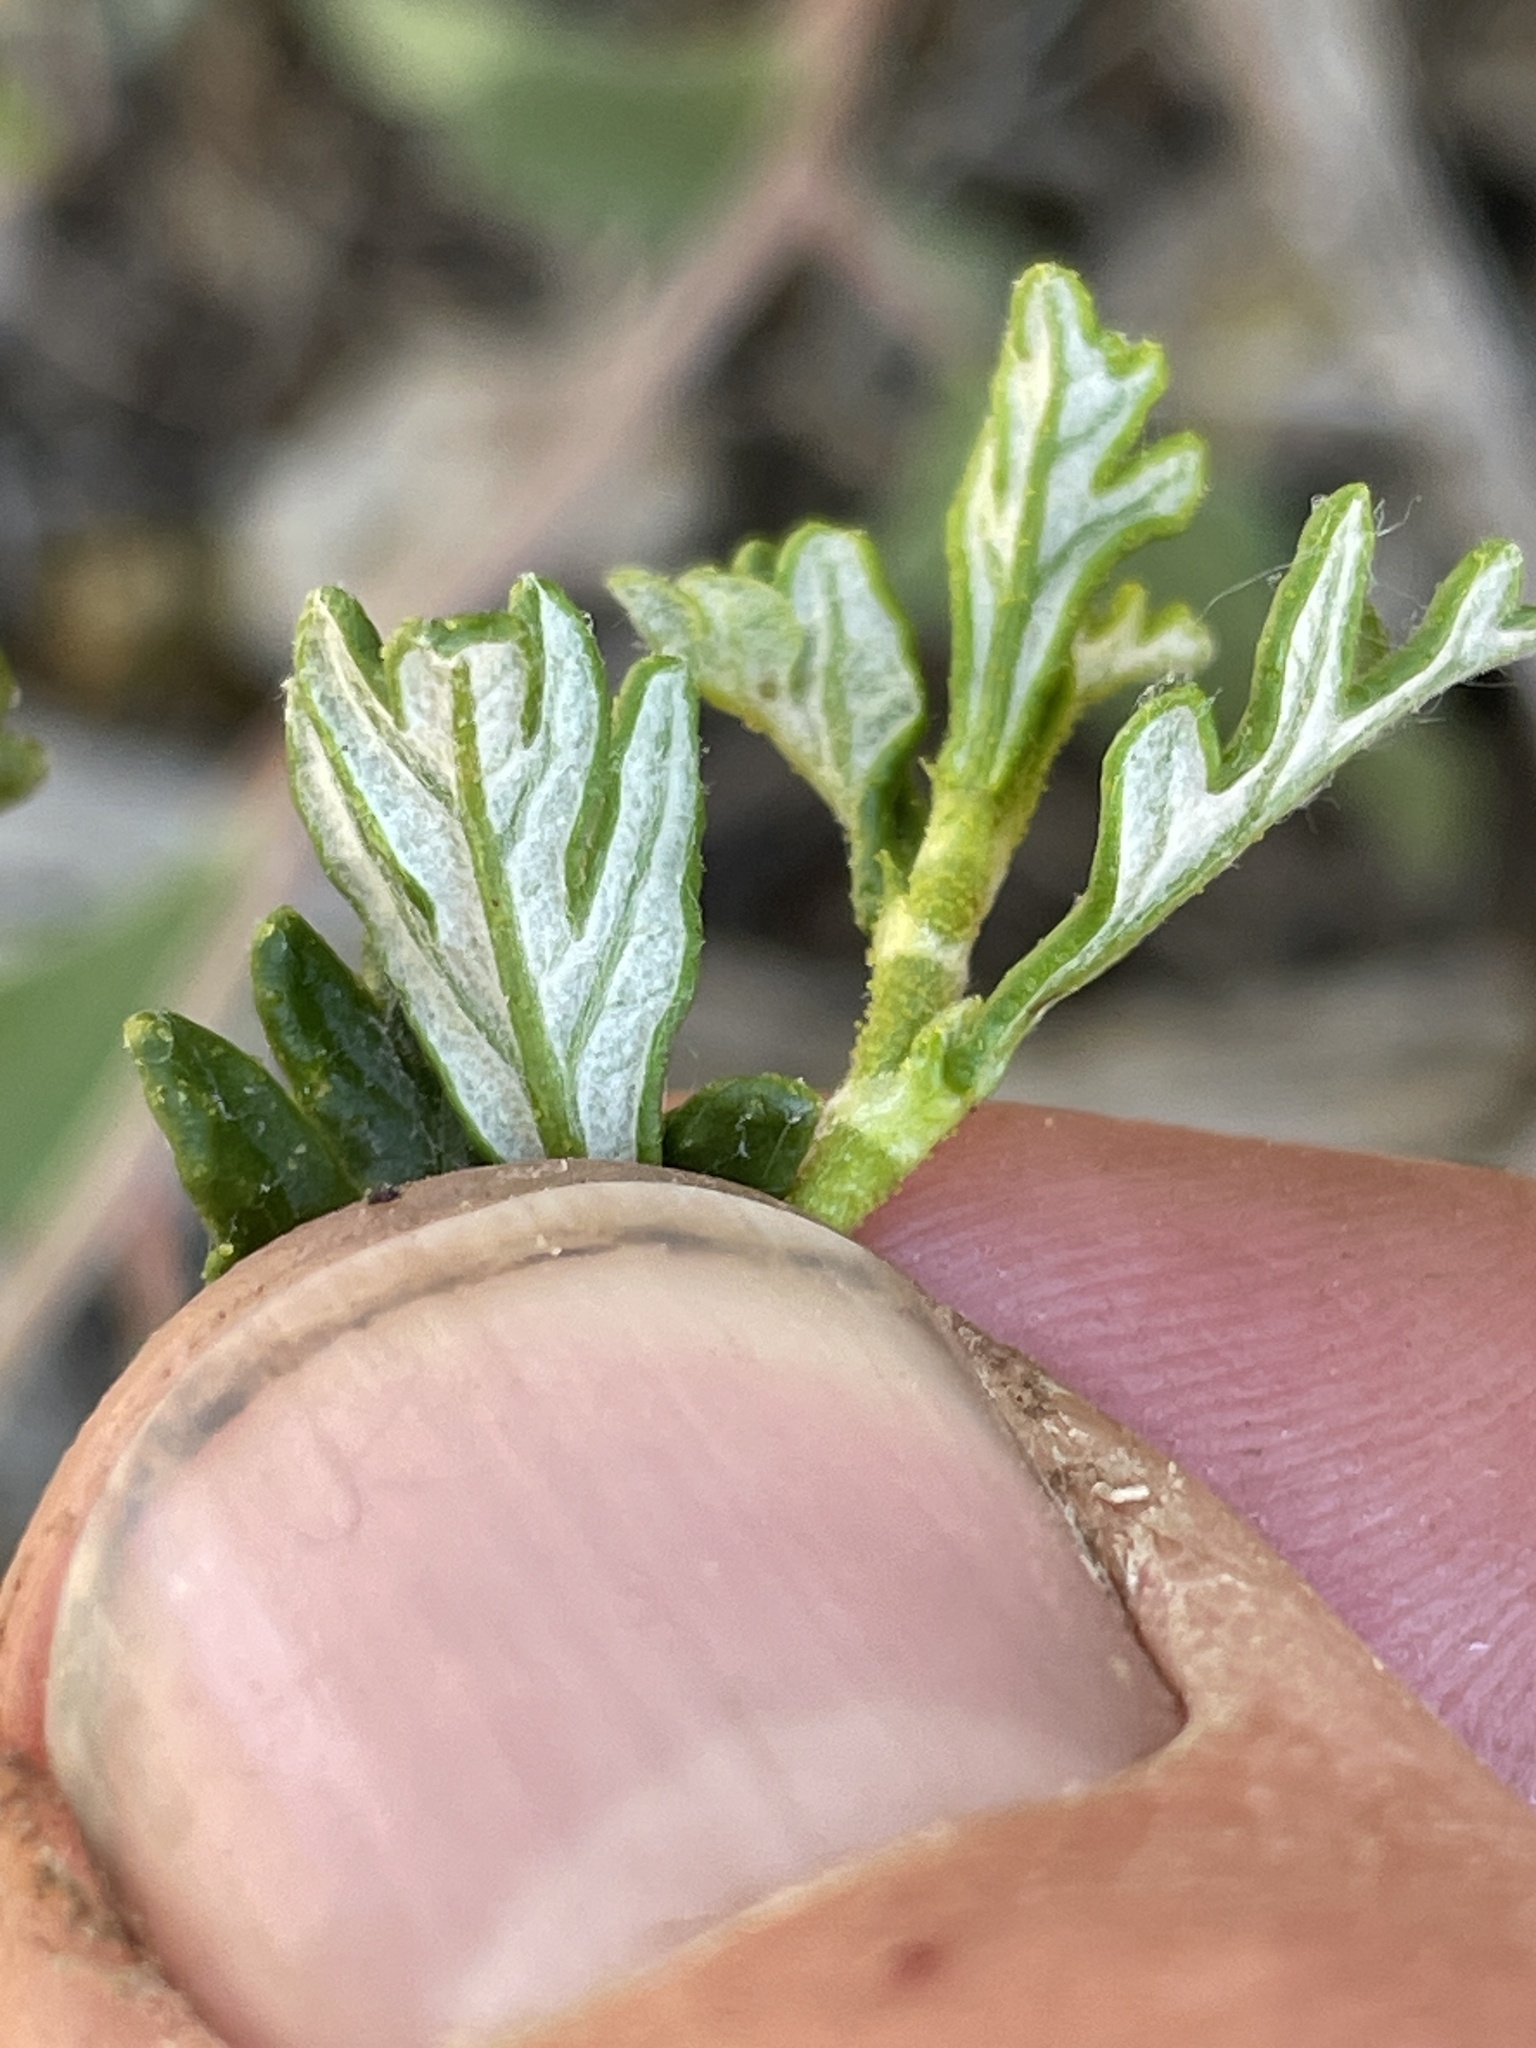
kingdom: Plantae
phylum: Tracheophyta
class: Magnoliopsida
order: Rosales
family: Rosaceae
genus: Purshia
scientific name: Purshia stansburiana
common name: Stansbury's cliffrose
